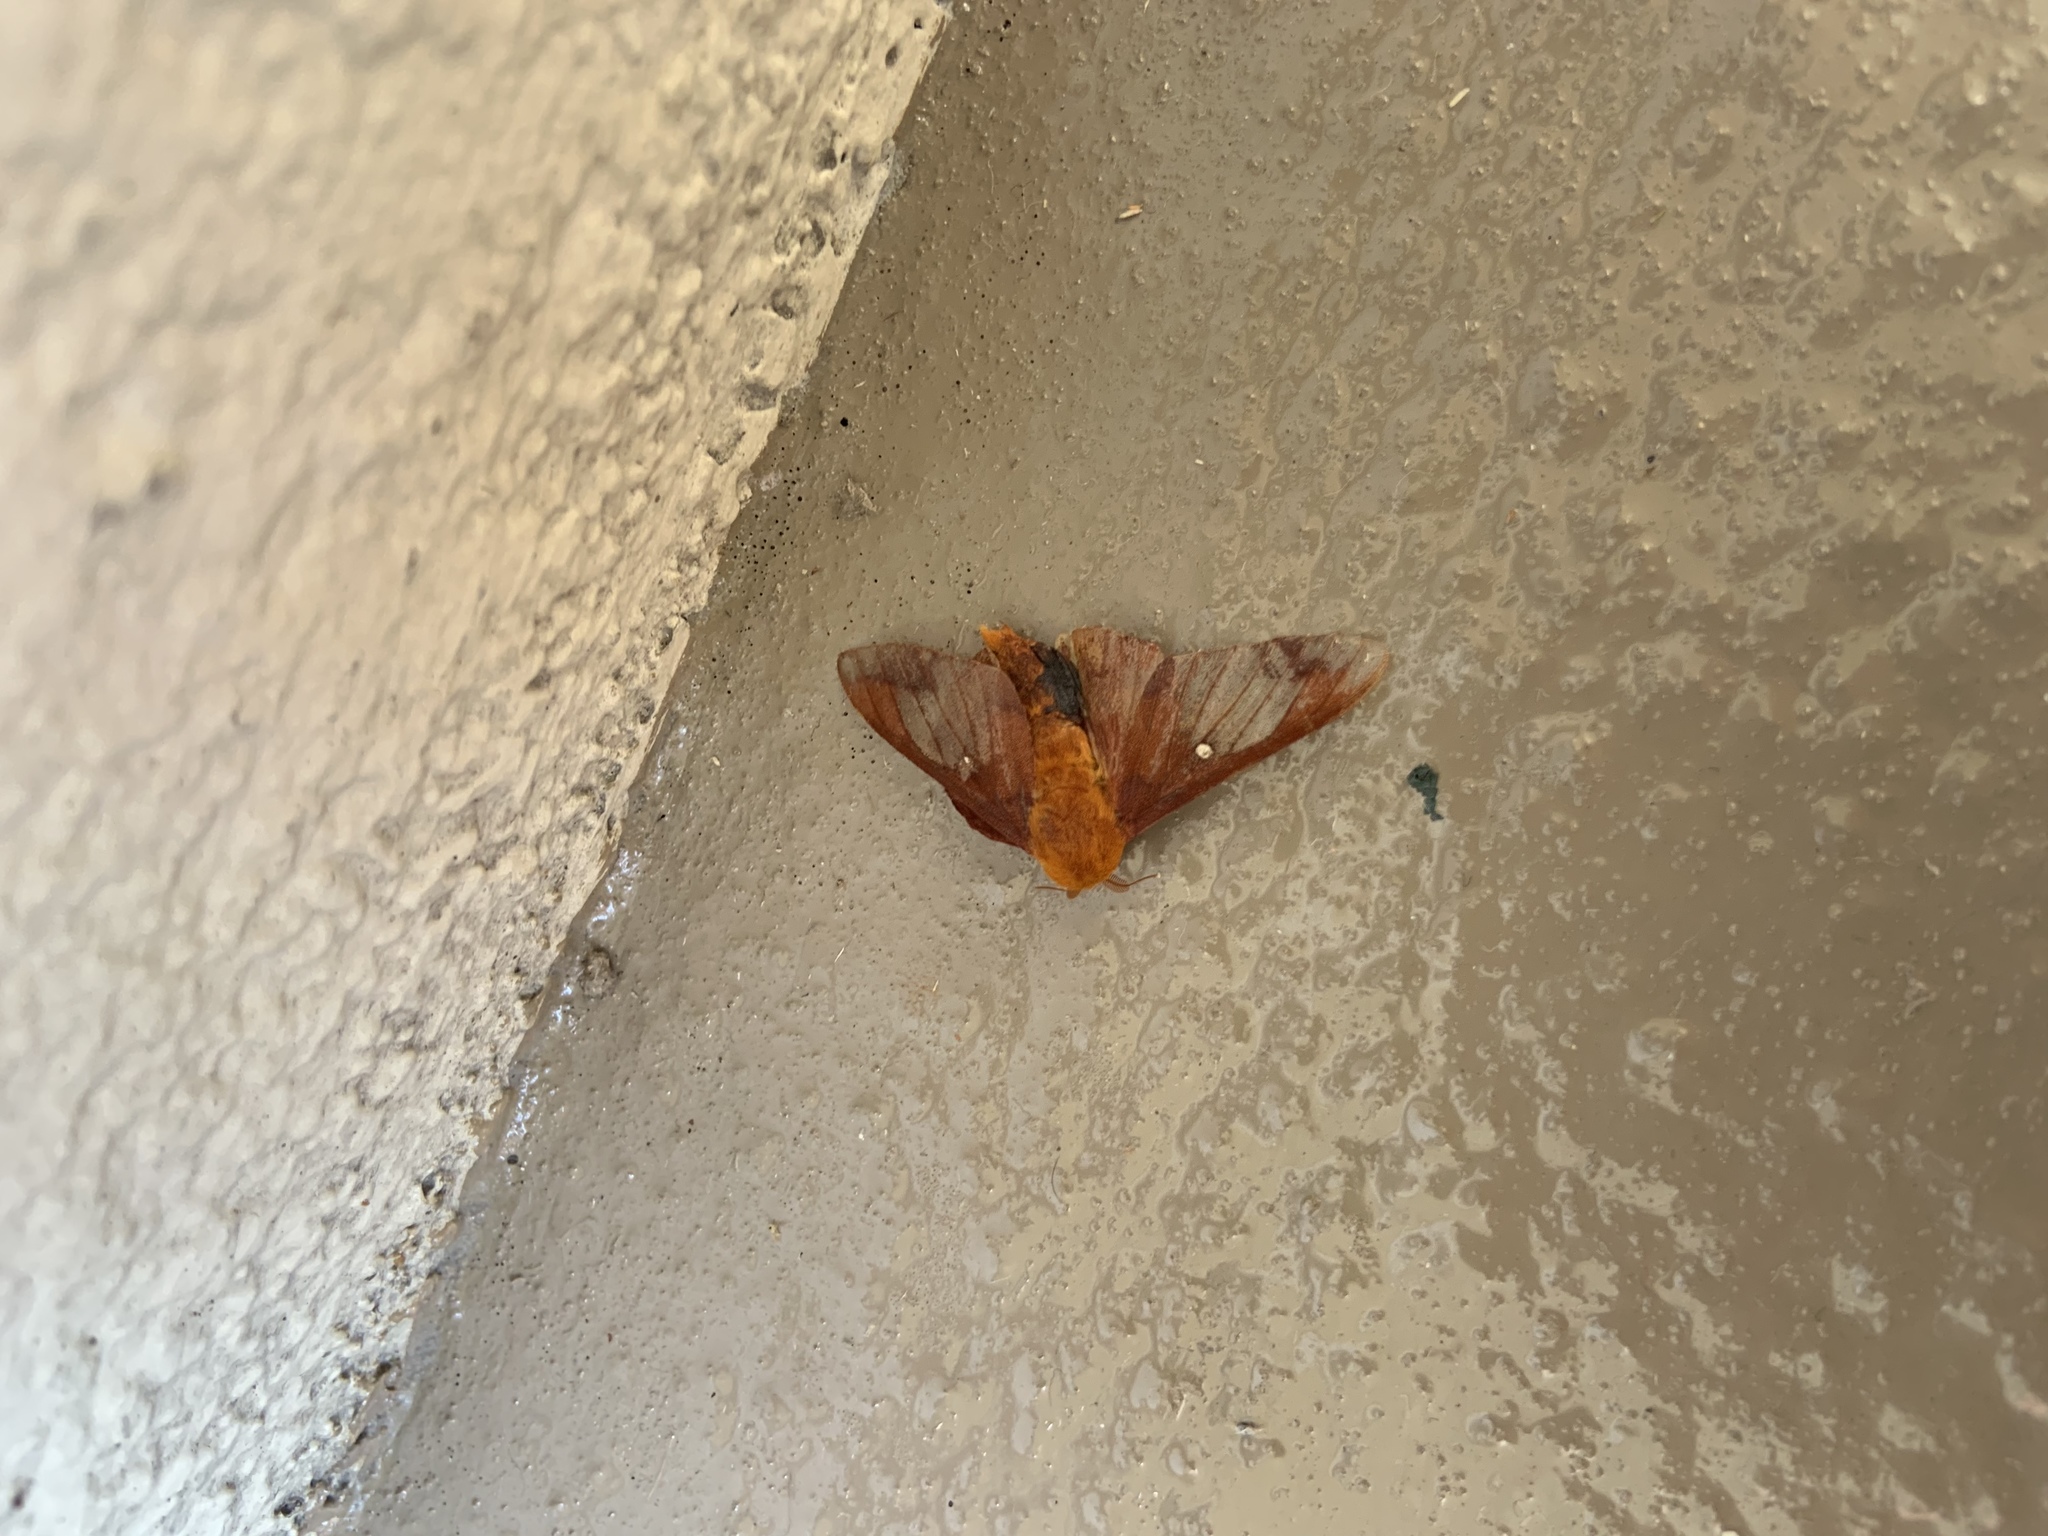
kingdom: Animalia
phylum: Arthropoda
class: Insecta
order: Lepidoptera
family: Saturniidae
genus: Anisota
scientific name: Anisota virginiensis
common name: Pink striped oakworm moth
